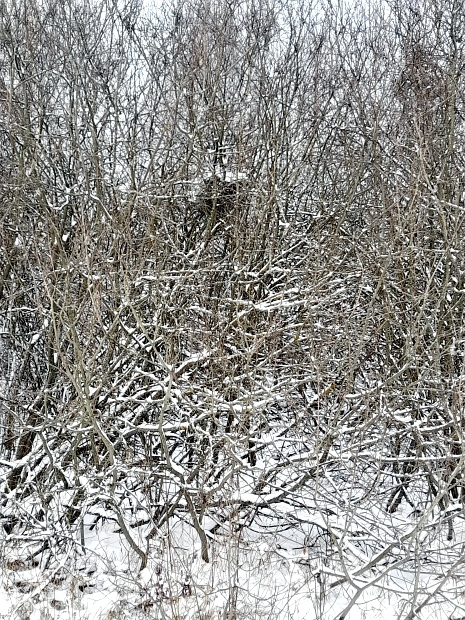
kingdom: Animalia
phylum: Chordata
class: Aves
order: Passeriformes
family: Corvidae
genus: Pica
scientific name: Pica pica
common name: Eurasian magpie
